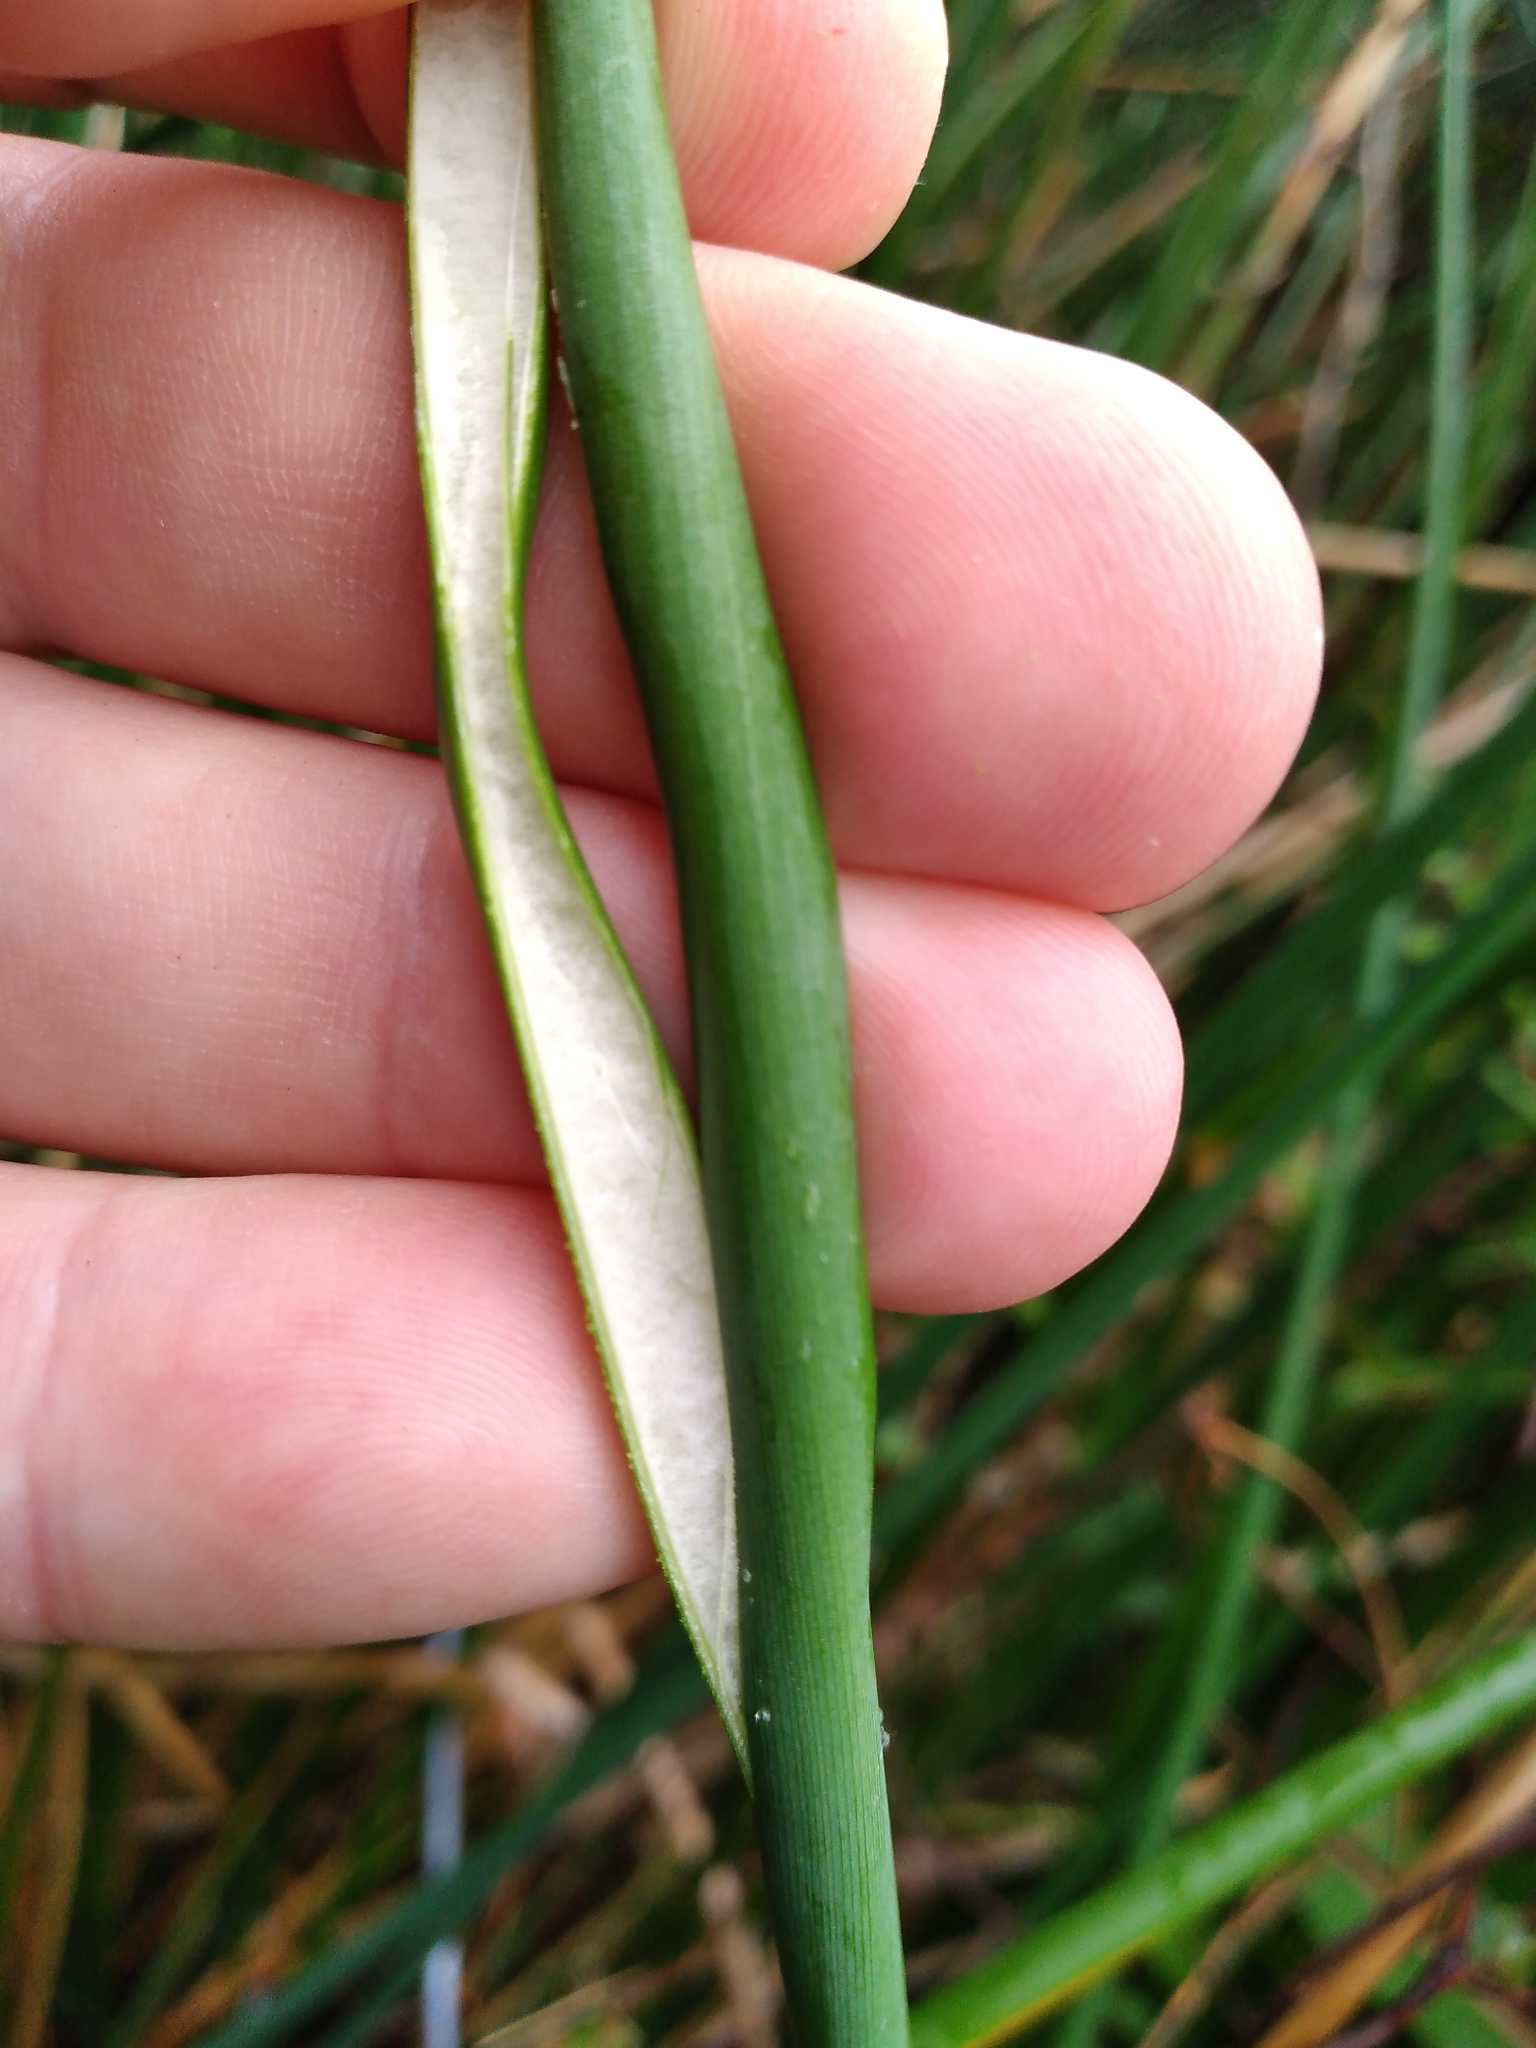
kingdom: Plantae
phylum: Tracheophyta
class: Liliopsida
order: Poales
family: Juncaceae
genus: Juncus
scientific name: Juncus pallidus
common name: Great soft-rush
